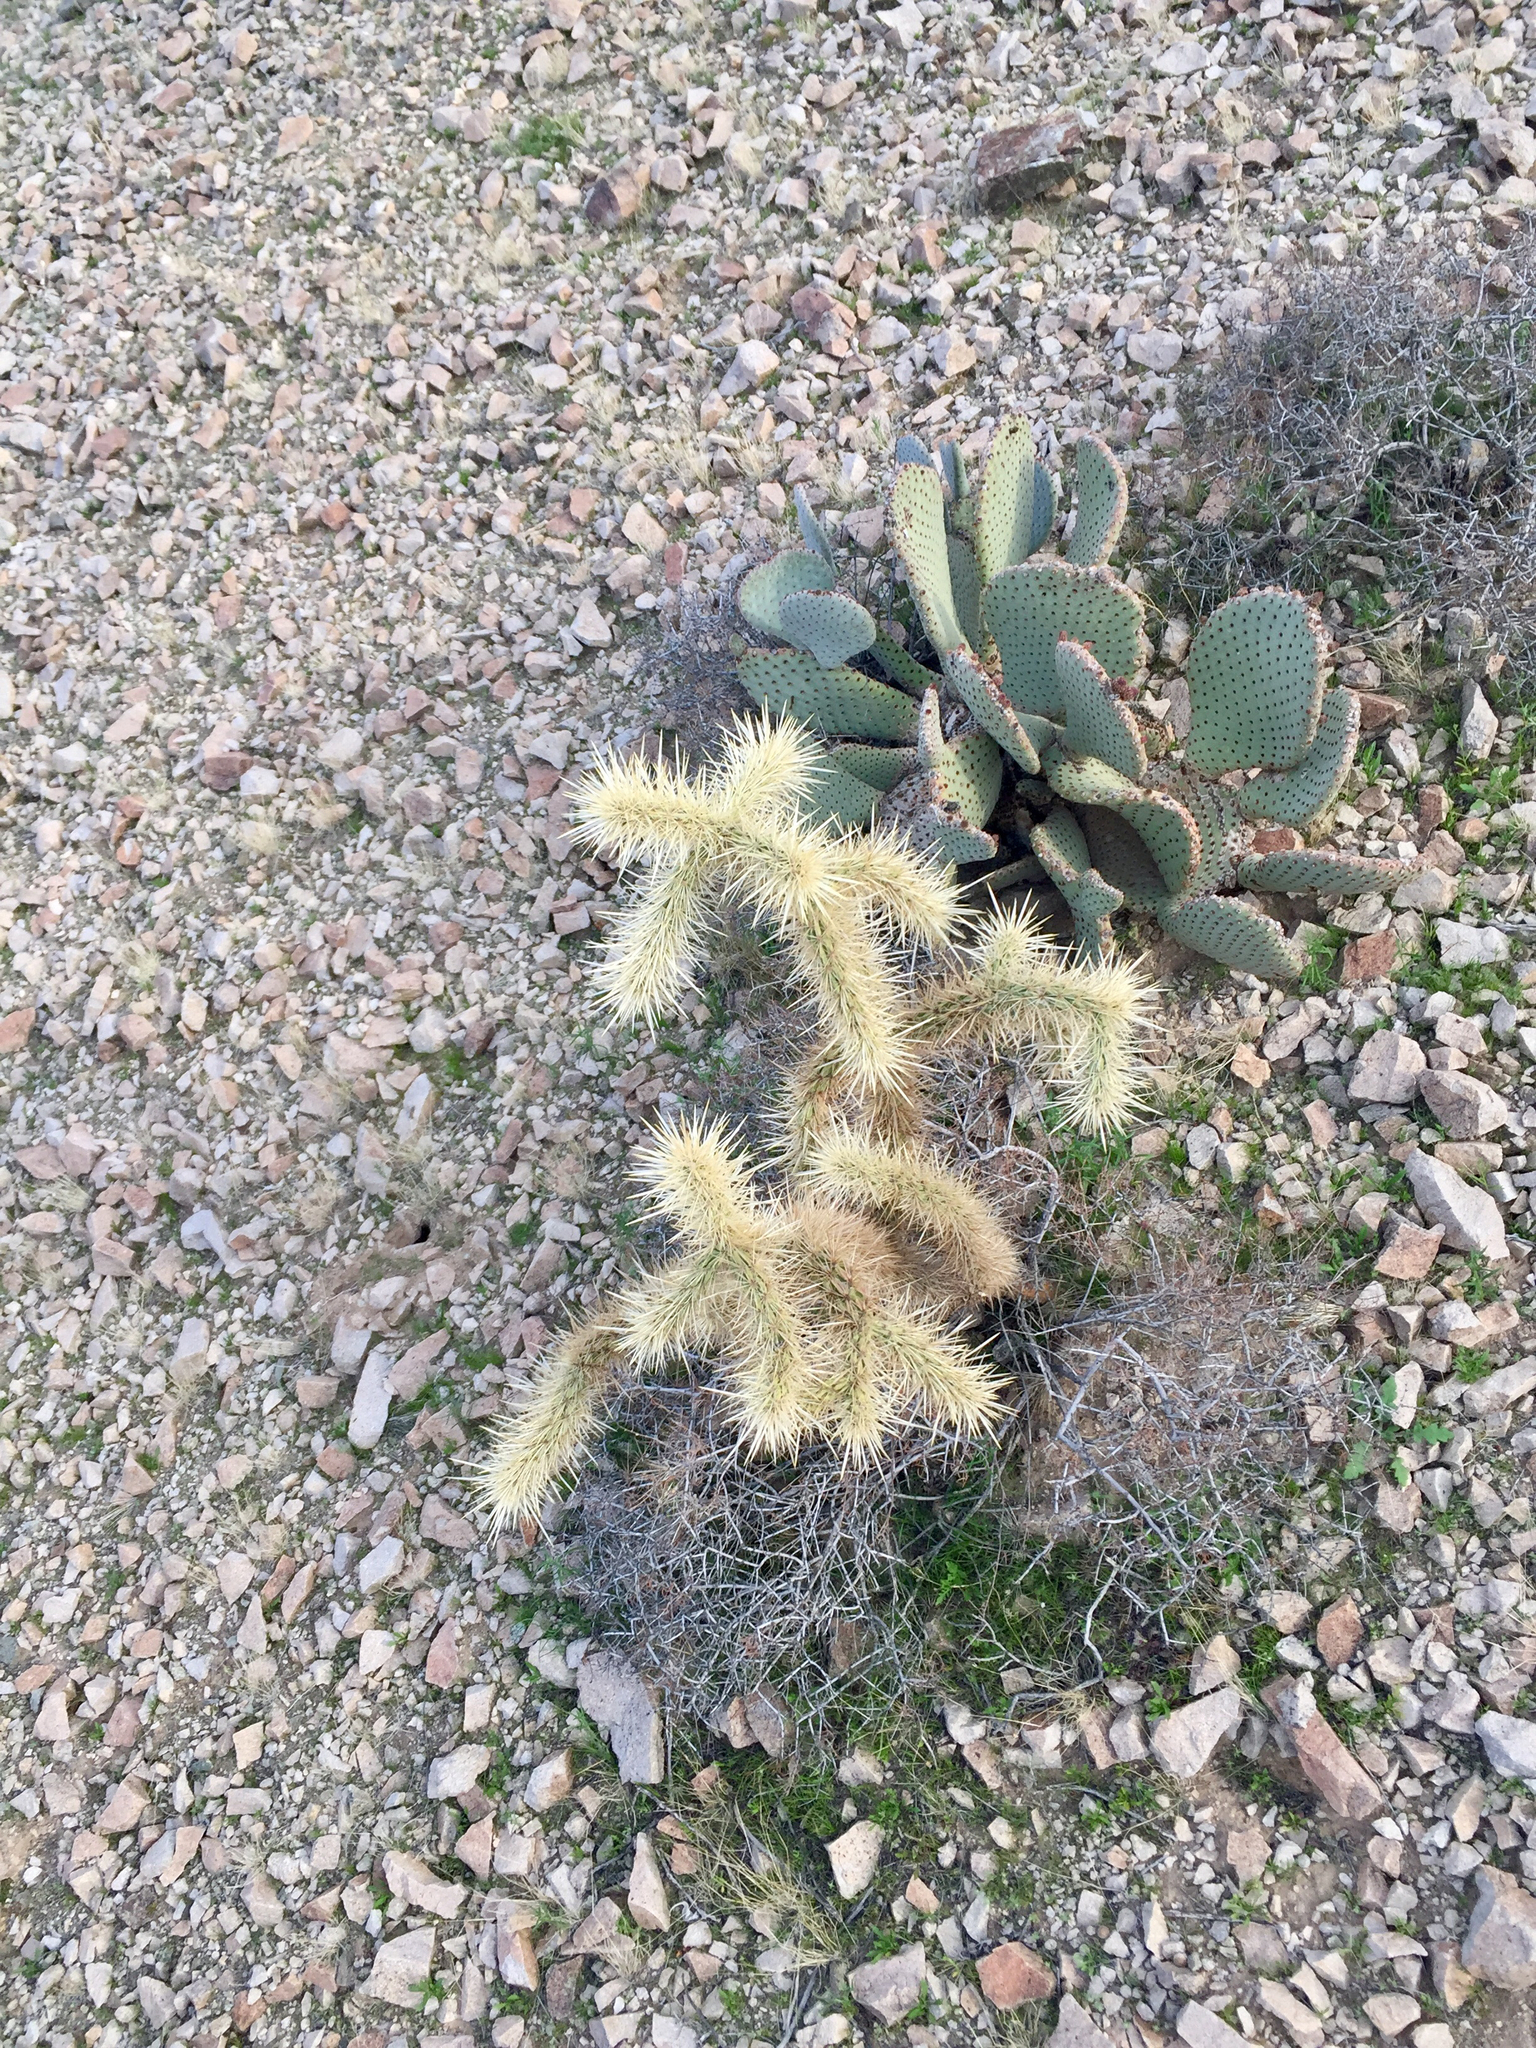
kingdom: Plantae
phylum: Tracheophyta
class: Magnoliopsida
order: Caryophyllales
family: Cactaceae
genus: Cylindropuntia
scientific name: Cylindropuntia acanthocarpa
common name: Buckhorn cholla
